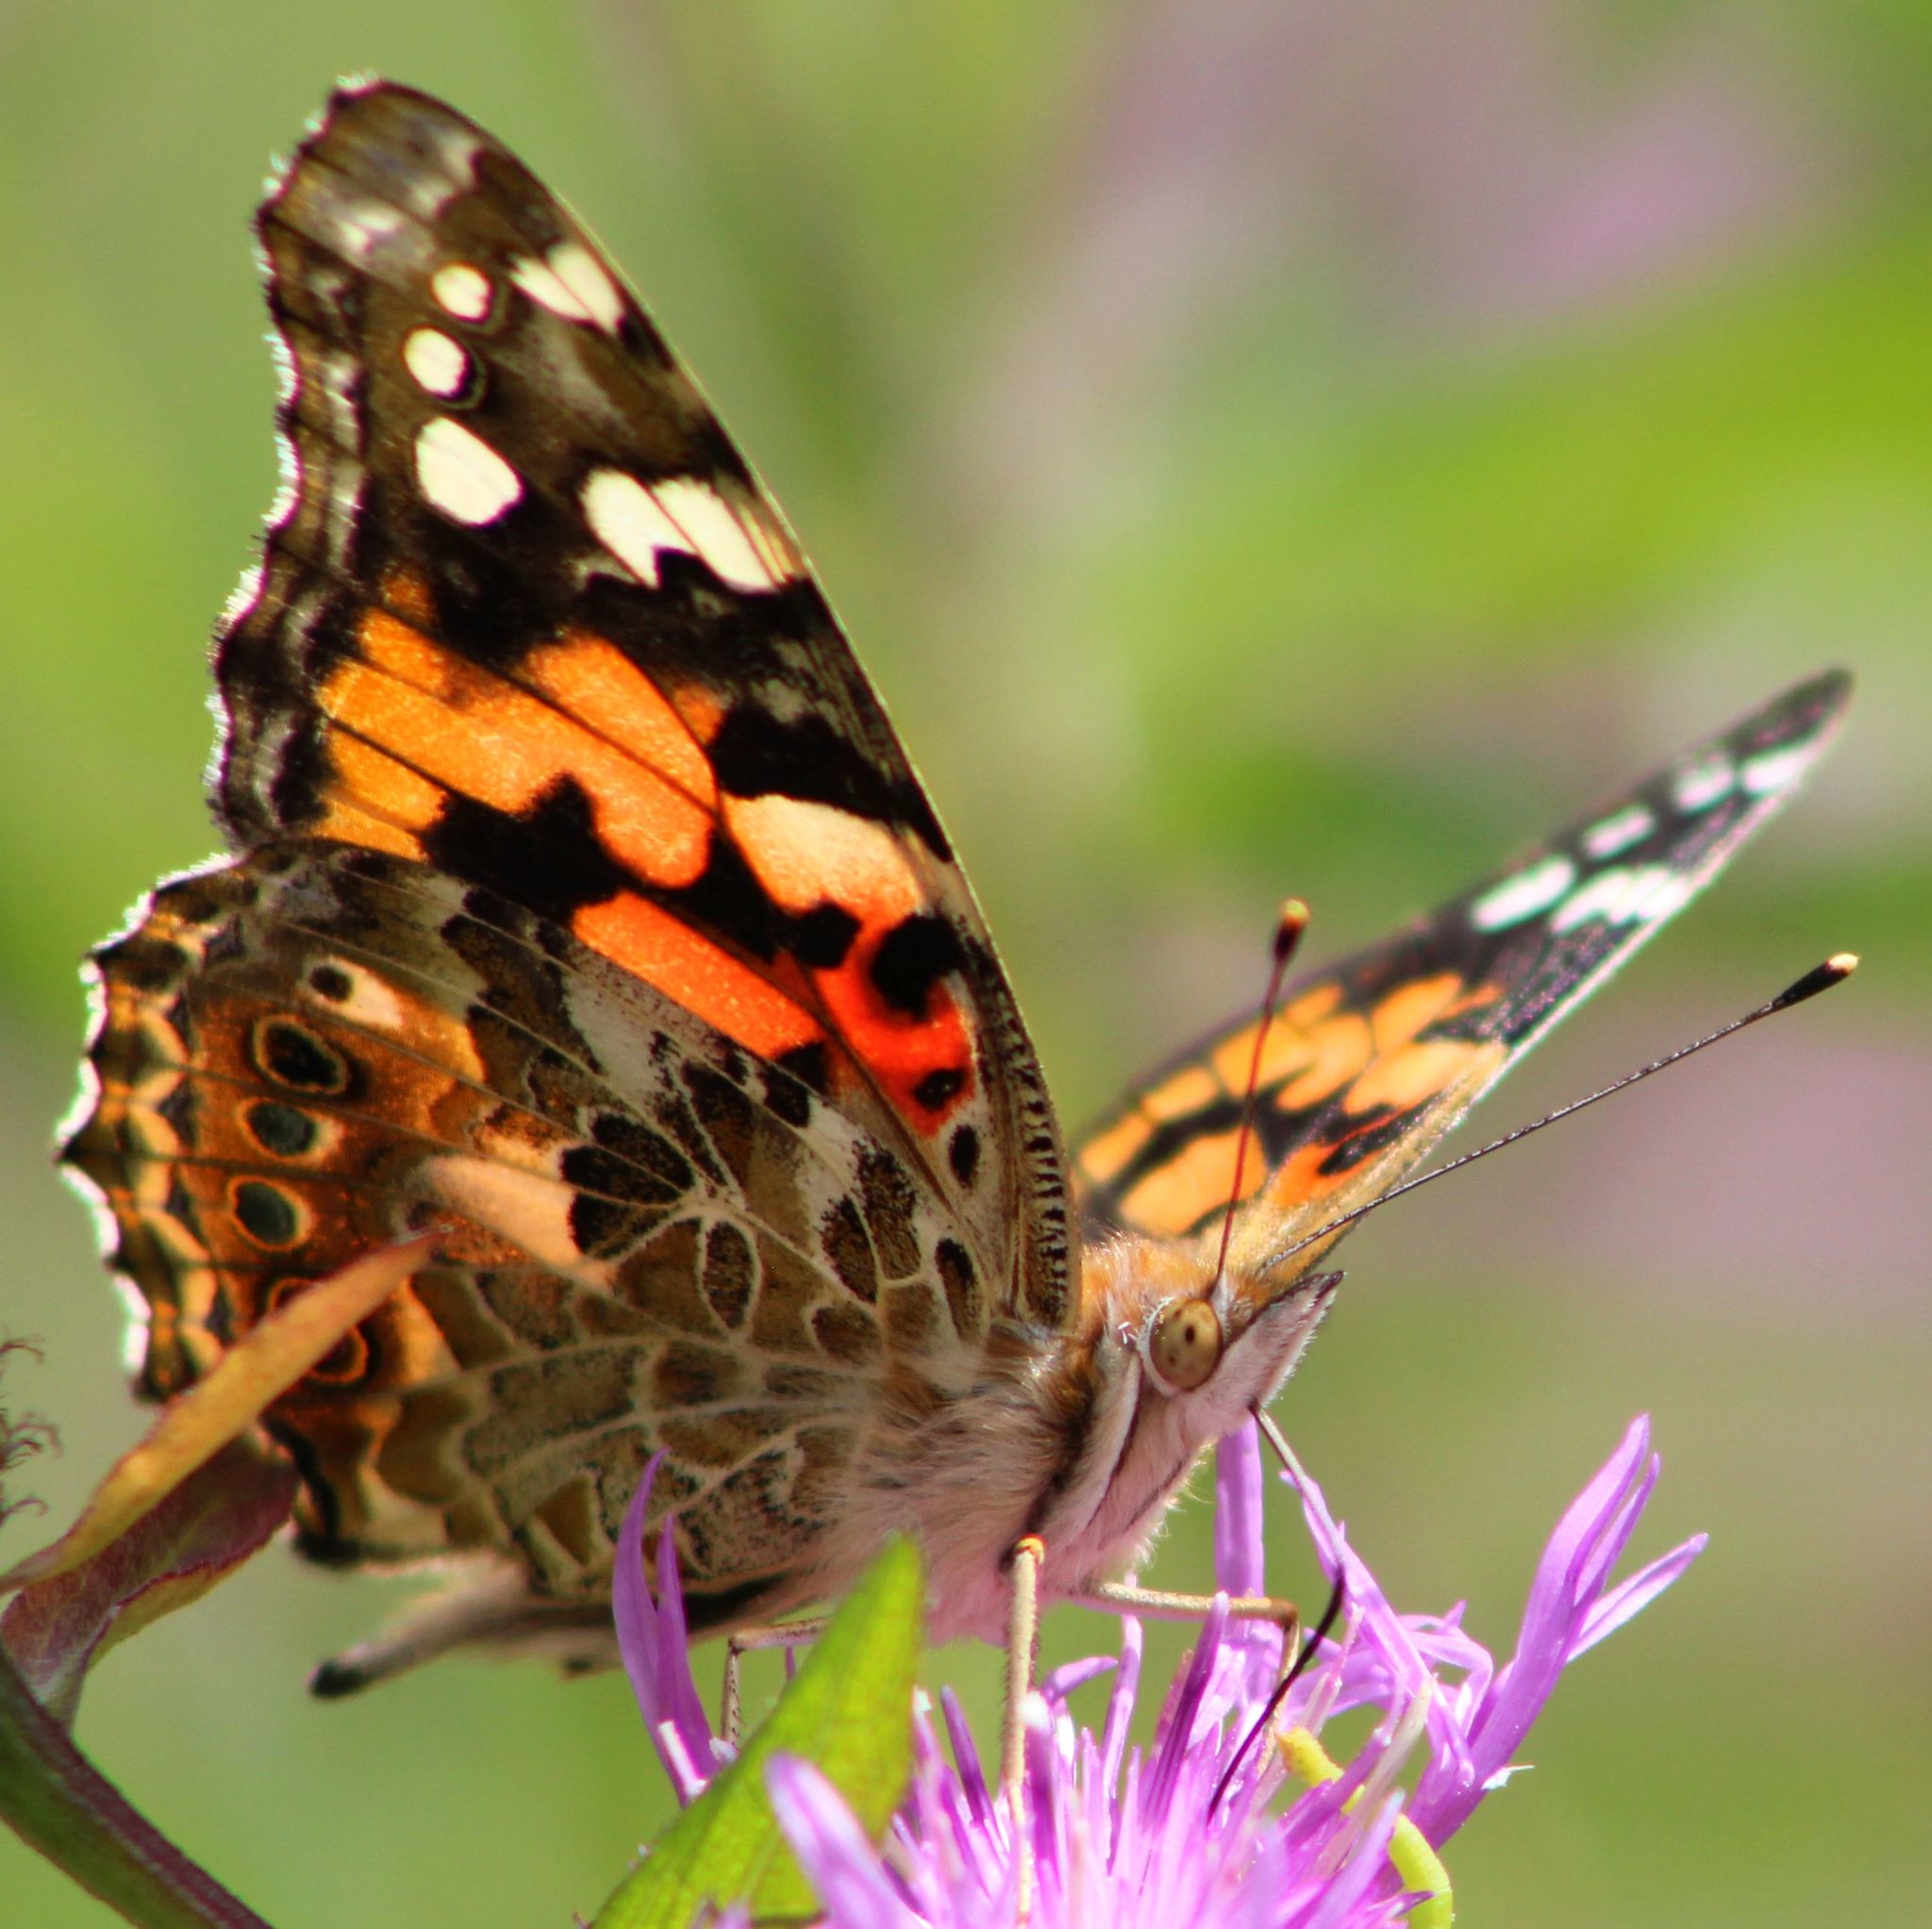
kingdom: Animalia
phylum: Arthropoda
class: Insecta
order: Lepidoptera
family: Nymphalidae
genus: Vanessa
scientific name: Vanessa cardui
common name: Painted lady
